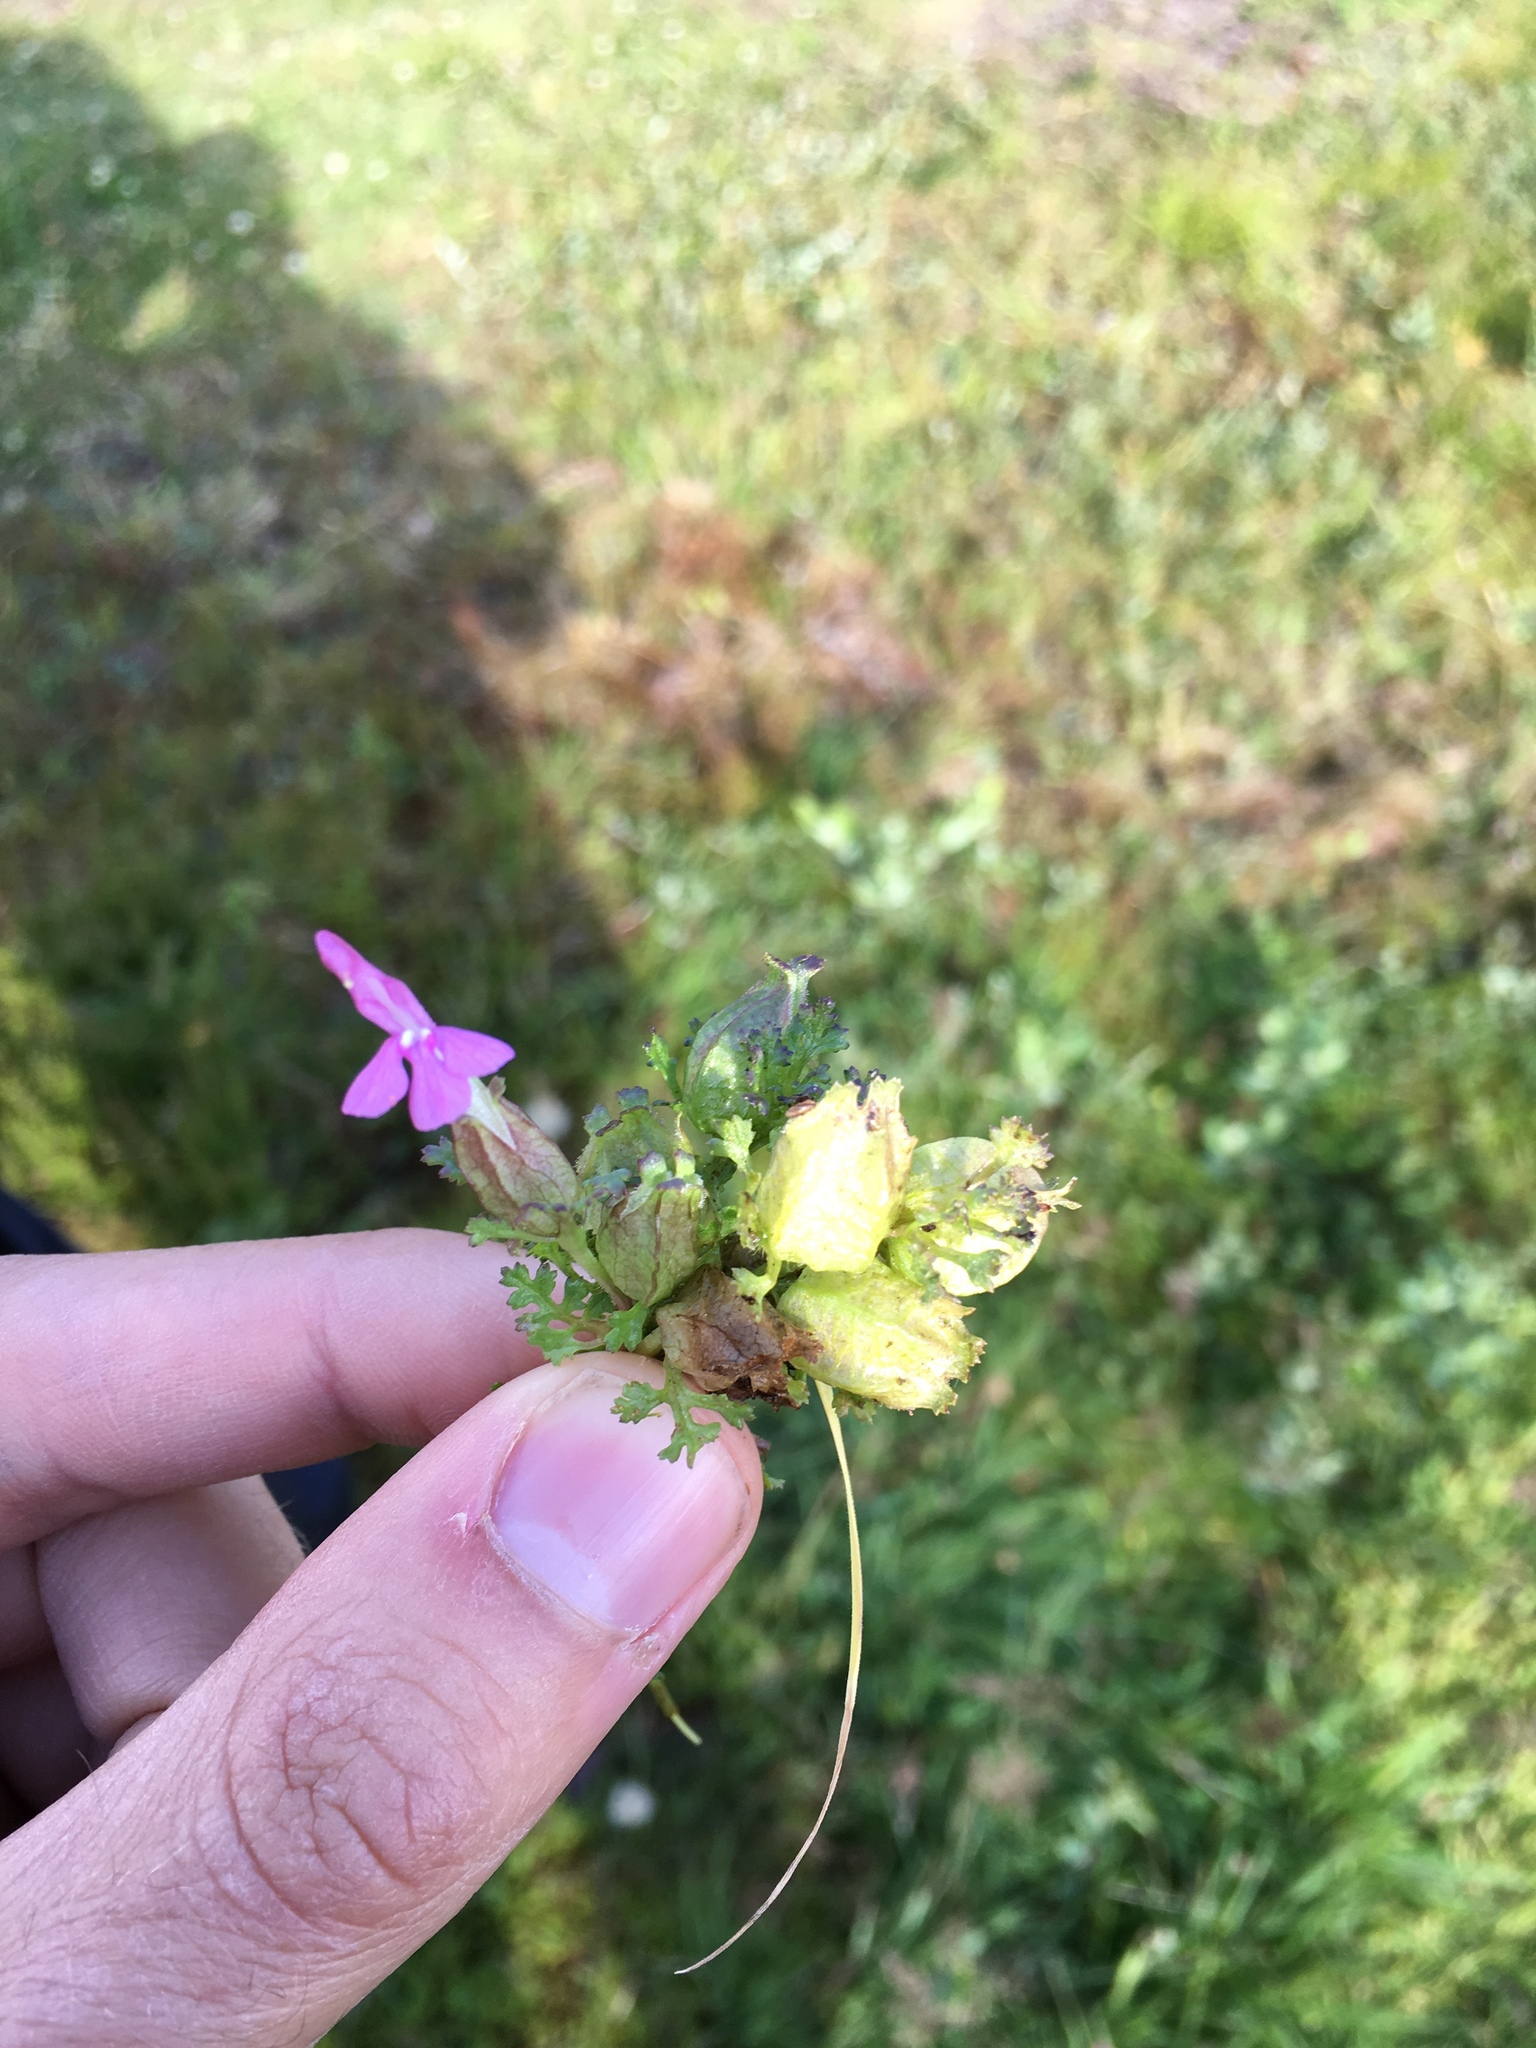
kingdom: Plantae
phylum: Tracheophyta
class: Magnoliopsida
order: Lamiales
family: Orobanchaceae
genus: Pedicularis
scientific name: Pedicularis sylvatica
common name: Lousewort
